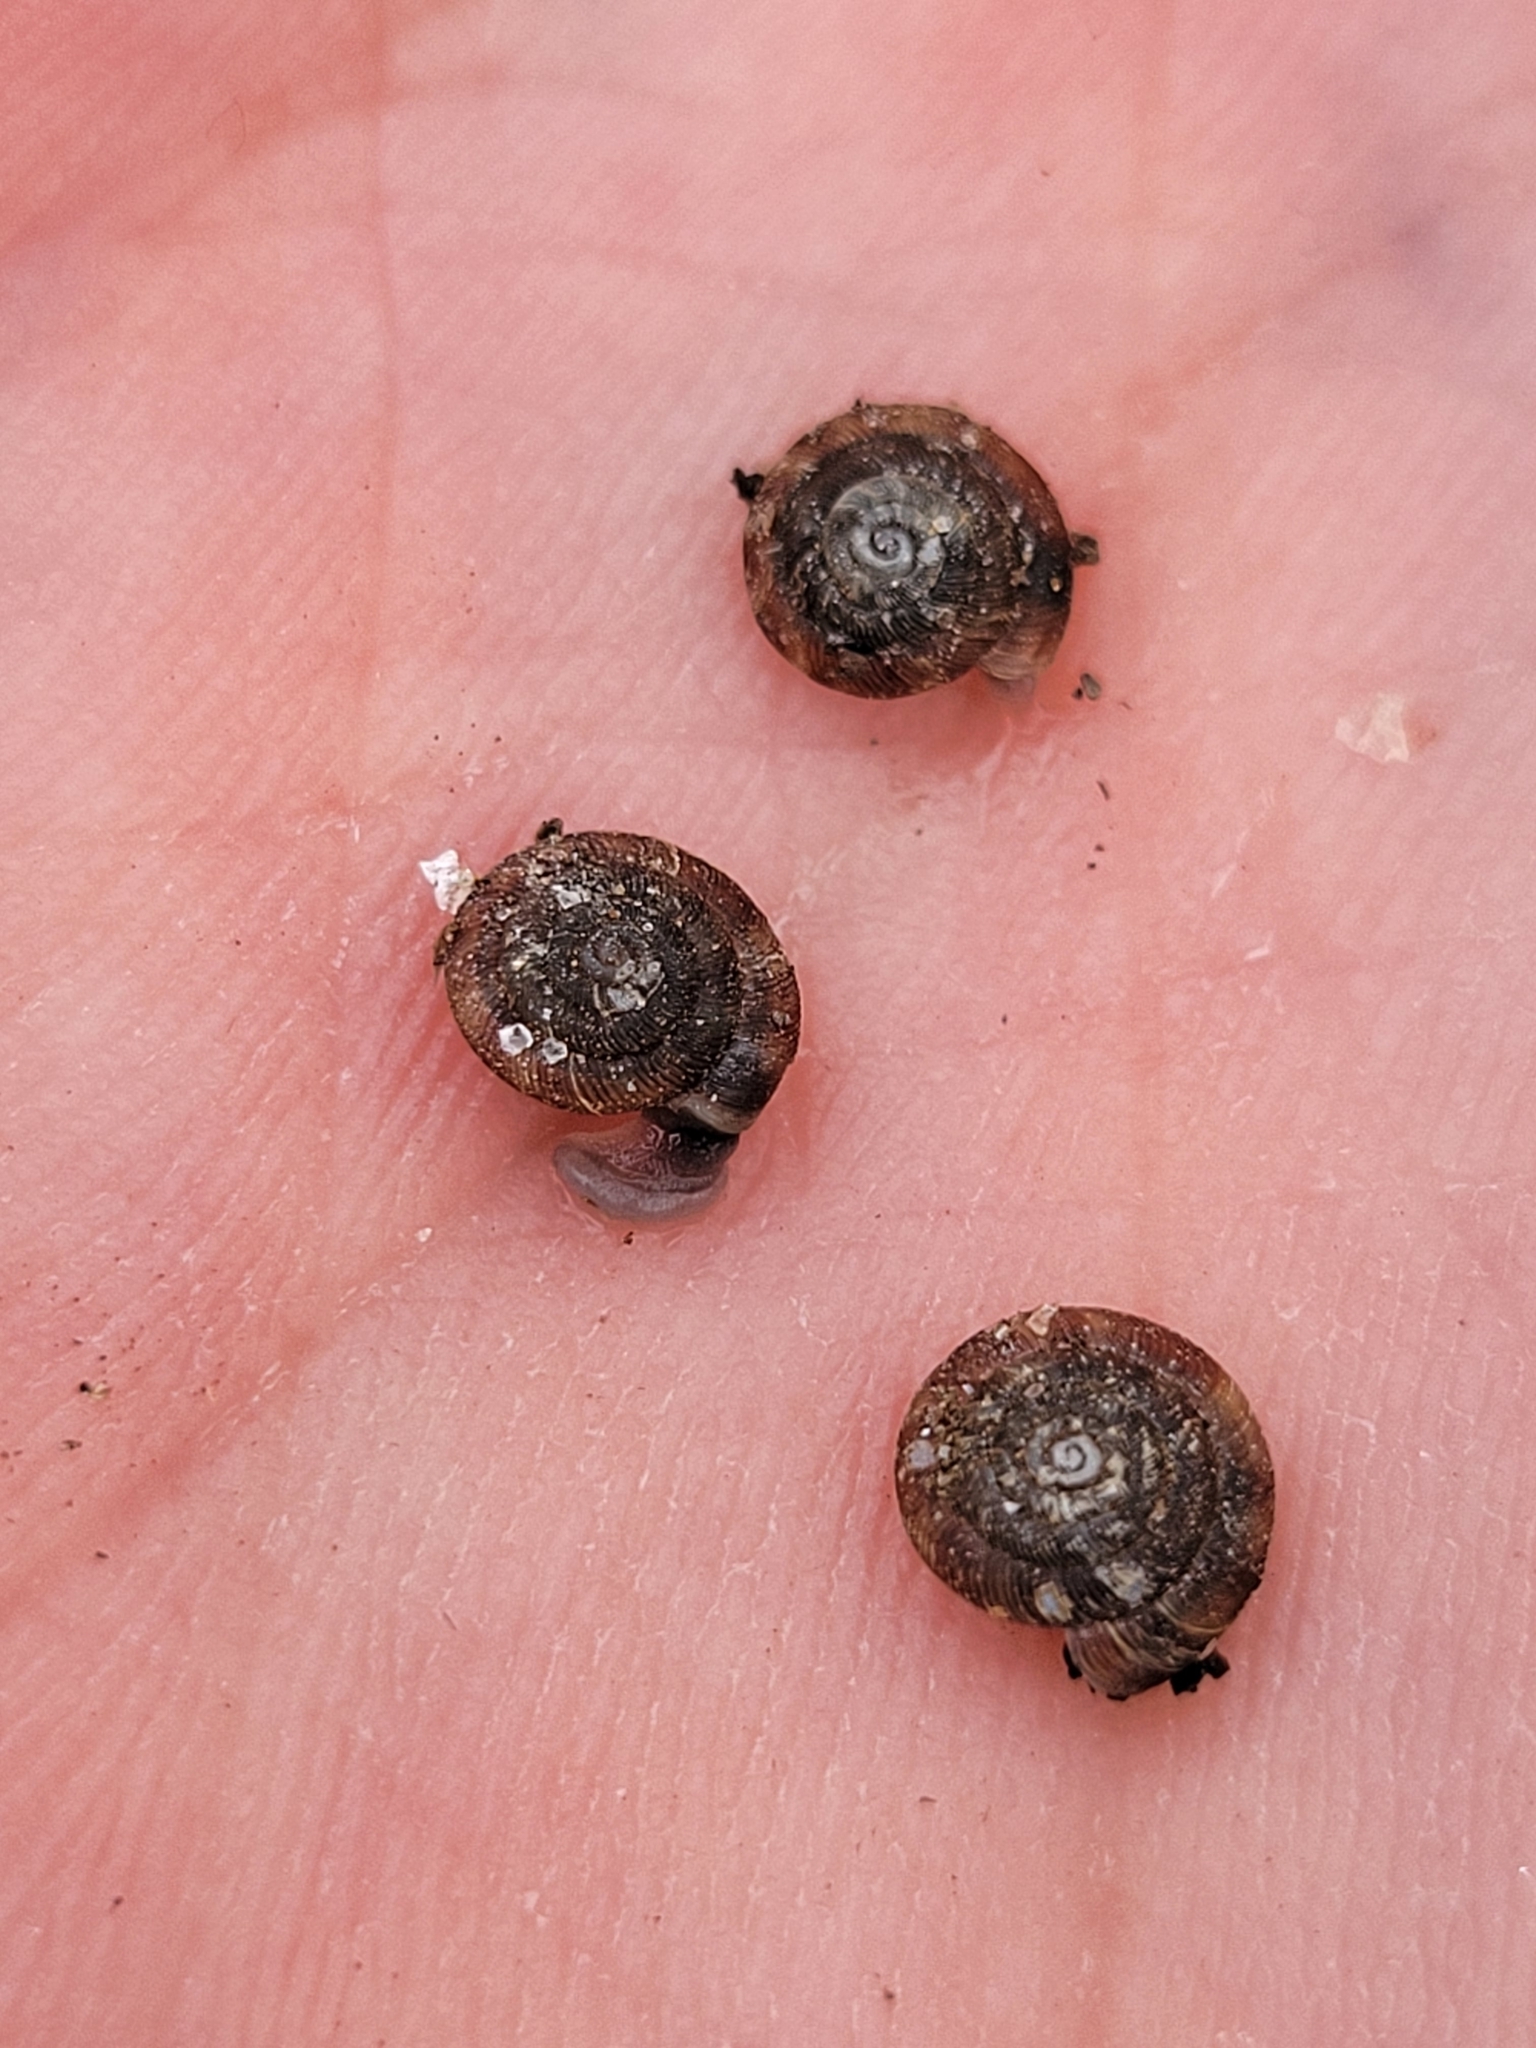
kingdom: Animalia
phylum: Mollusca
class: Gastropoda
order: Stylommatophora
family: Discidae
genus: Discus
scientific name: Discus rotundatus
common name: Rounded snail
